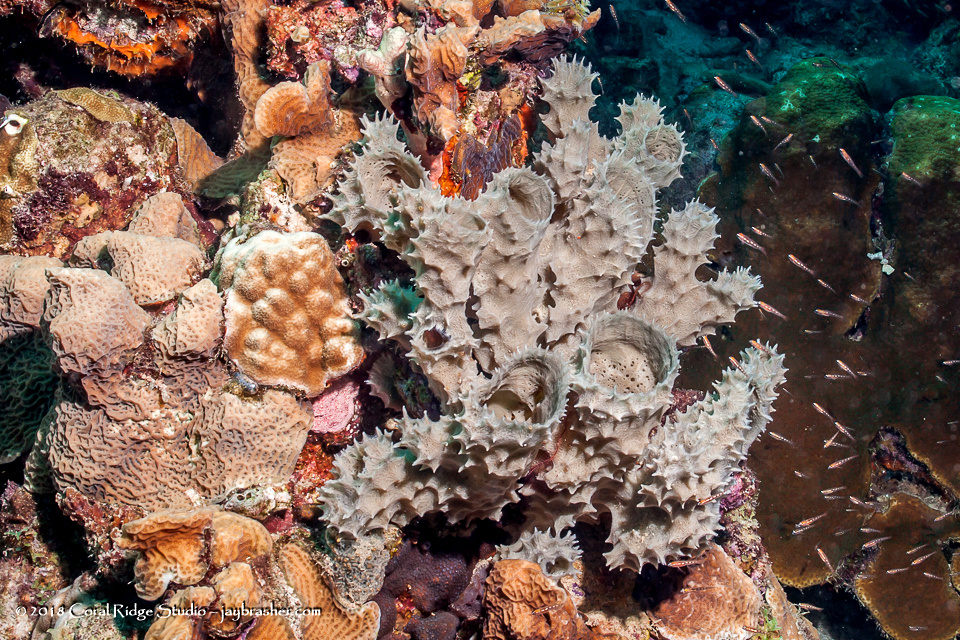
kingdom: Animalia
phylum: Porifera
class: Demospongiae
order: Haplosclerida
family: Callyspongiidae
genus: Callyspongia
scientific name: Callyspongia armigera
